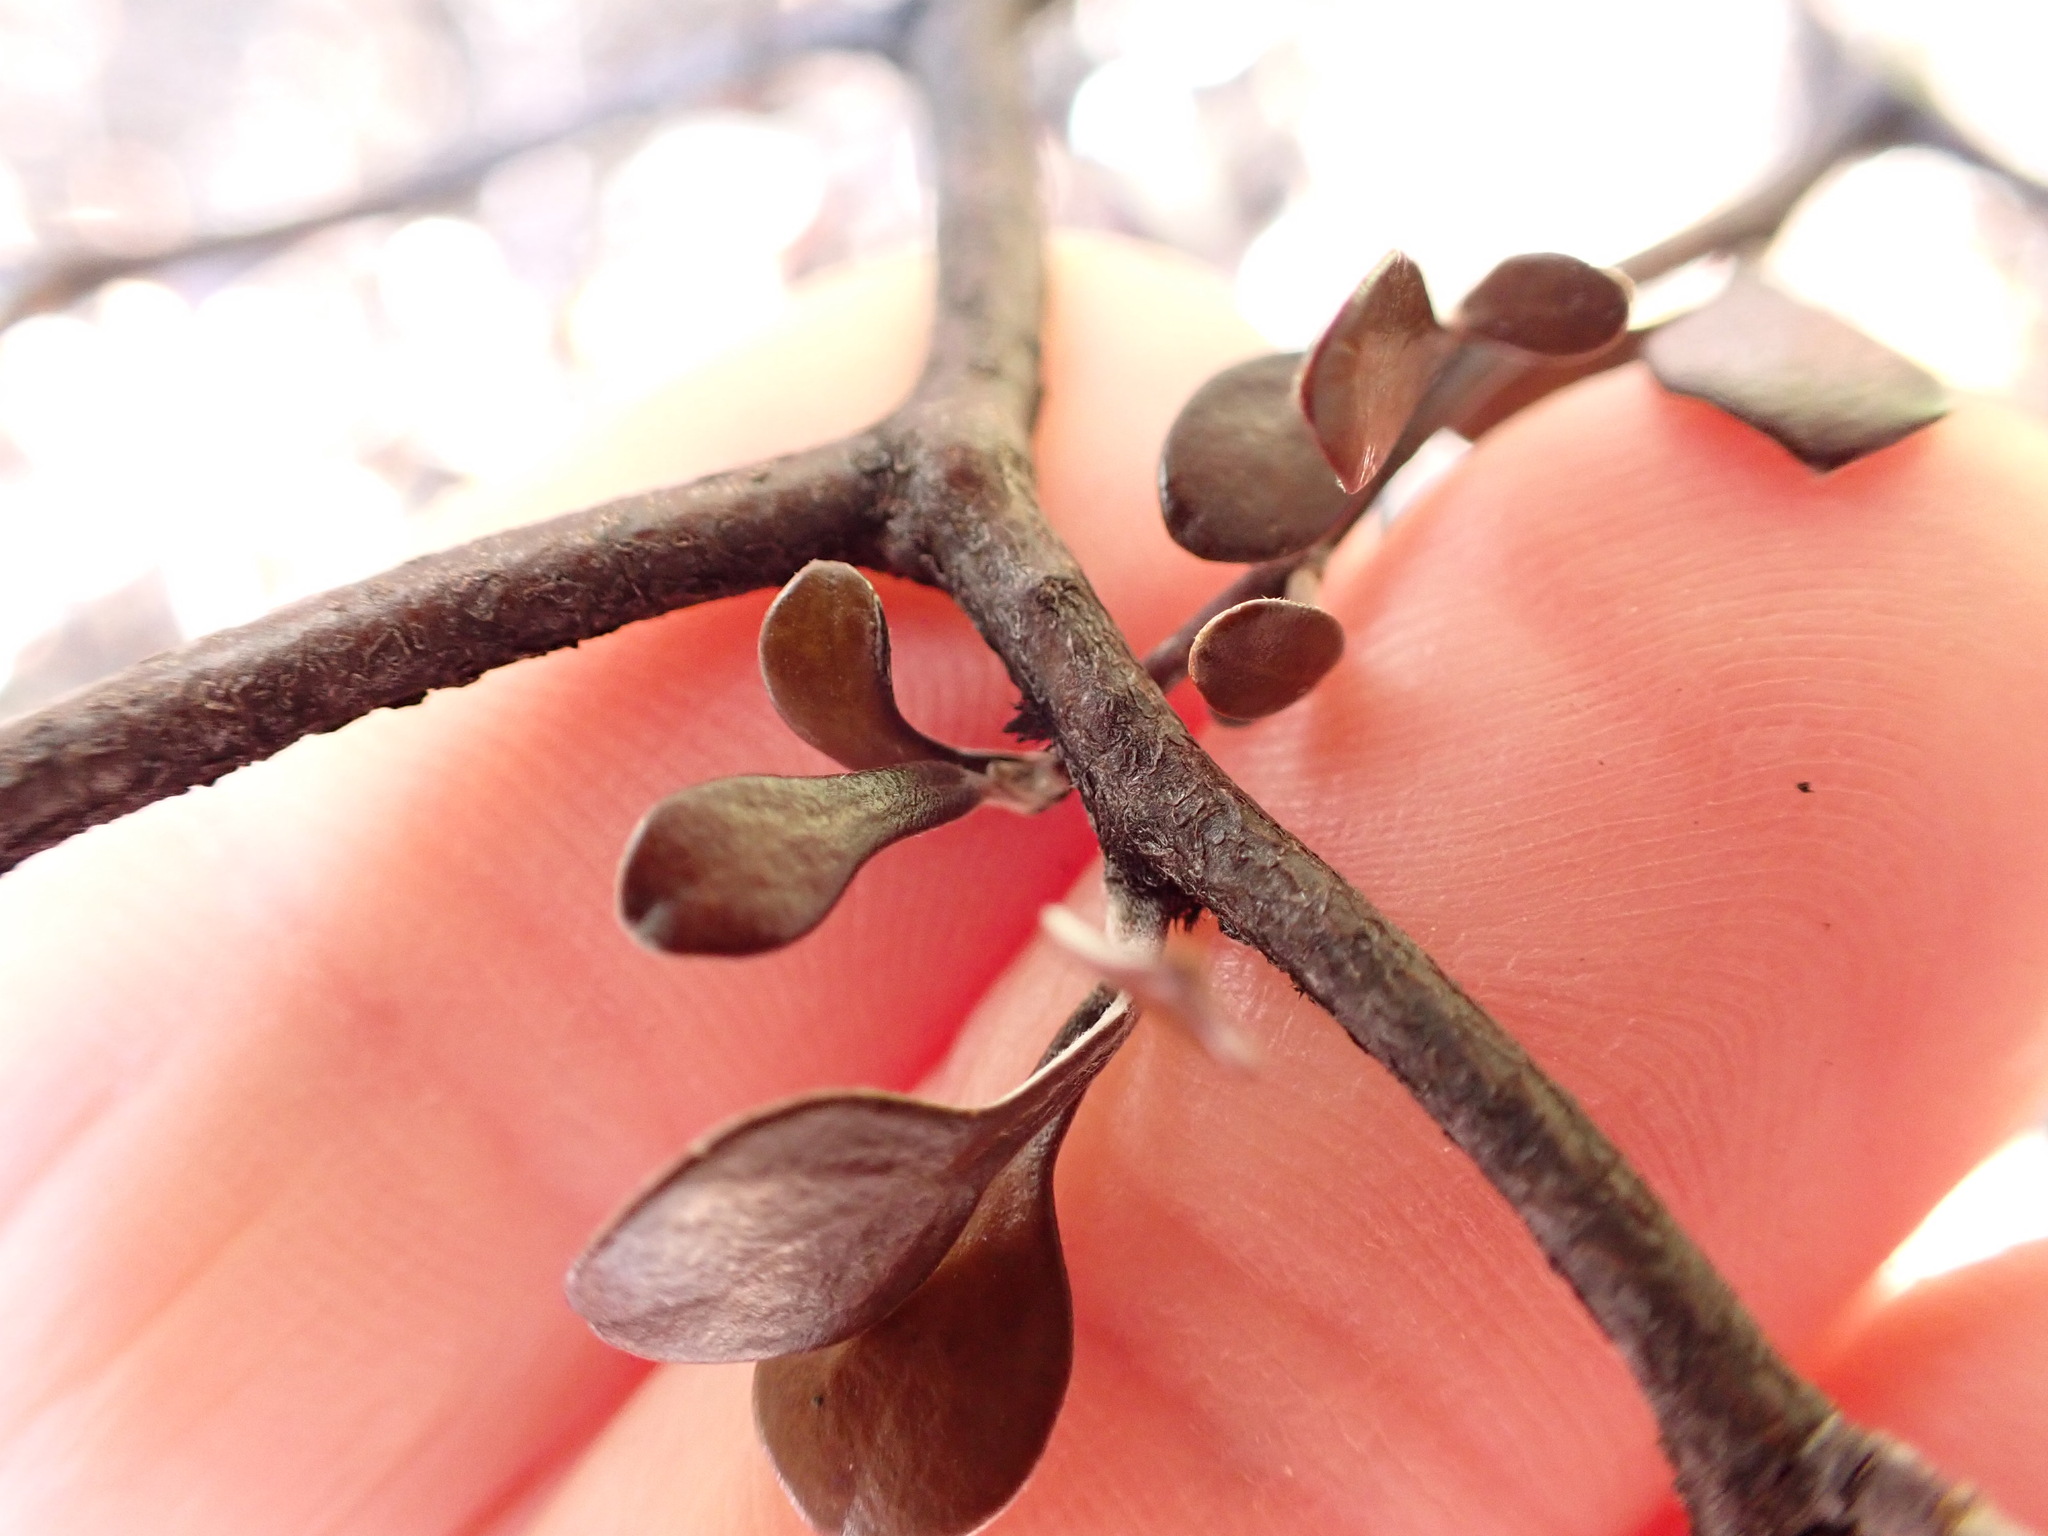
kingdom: Plantae
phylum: Tracheophyta
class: Magnoliopsida
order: Asterales
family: Argophyllaceae
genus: Corokia
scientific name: Corokia cotoneaster
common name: Wire nettingbush
